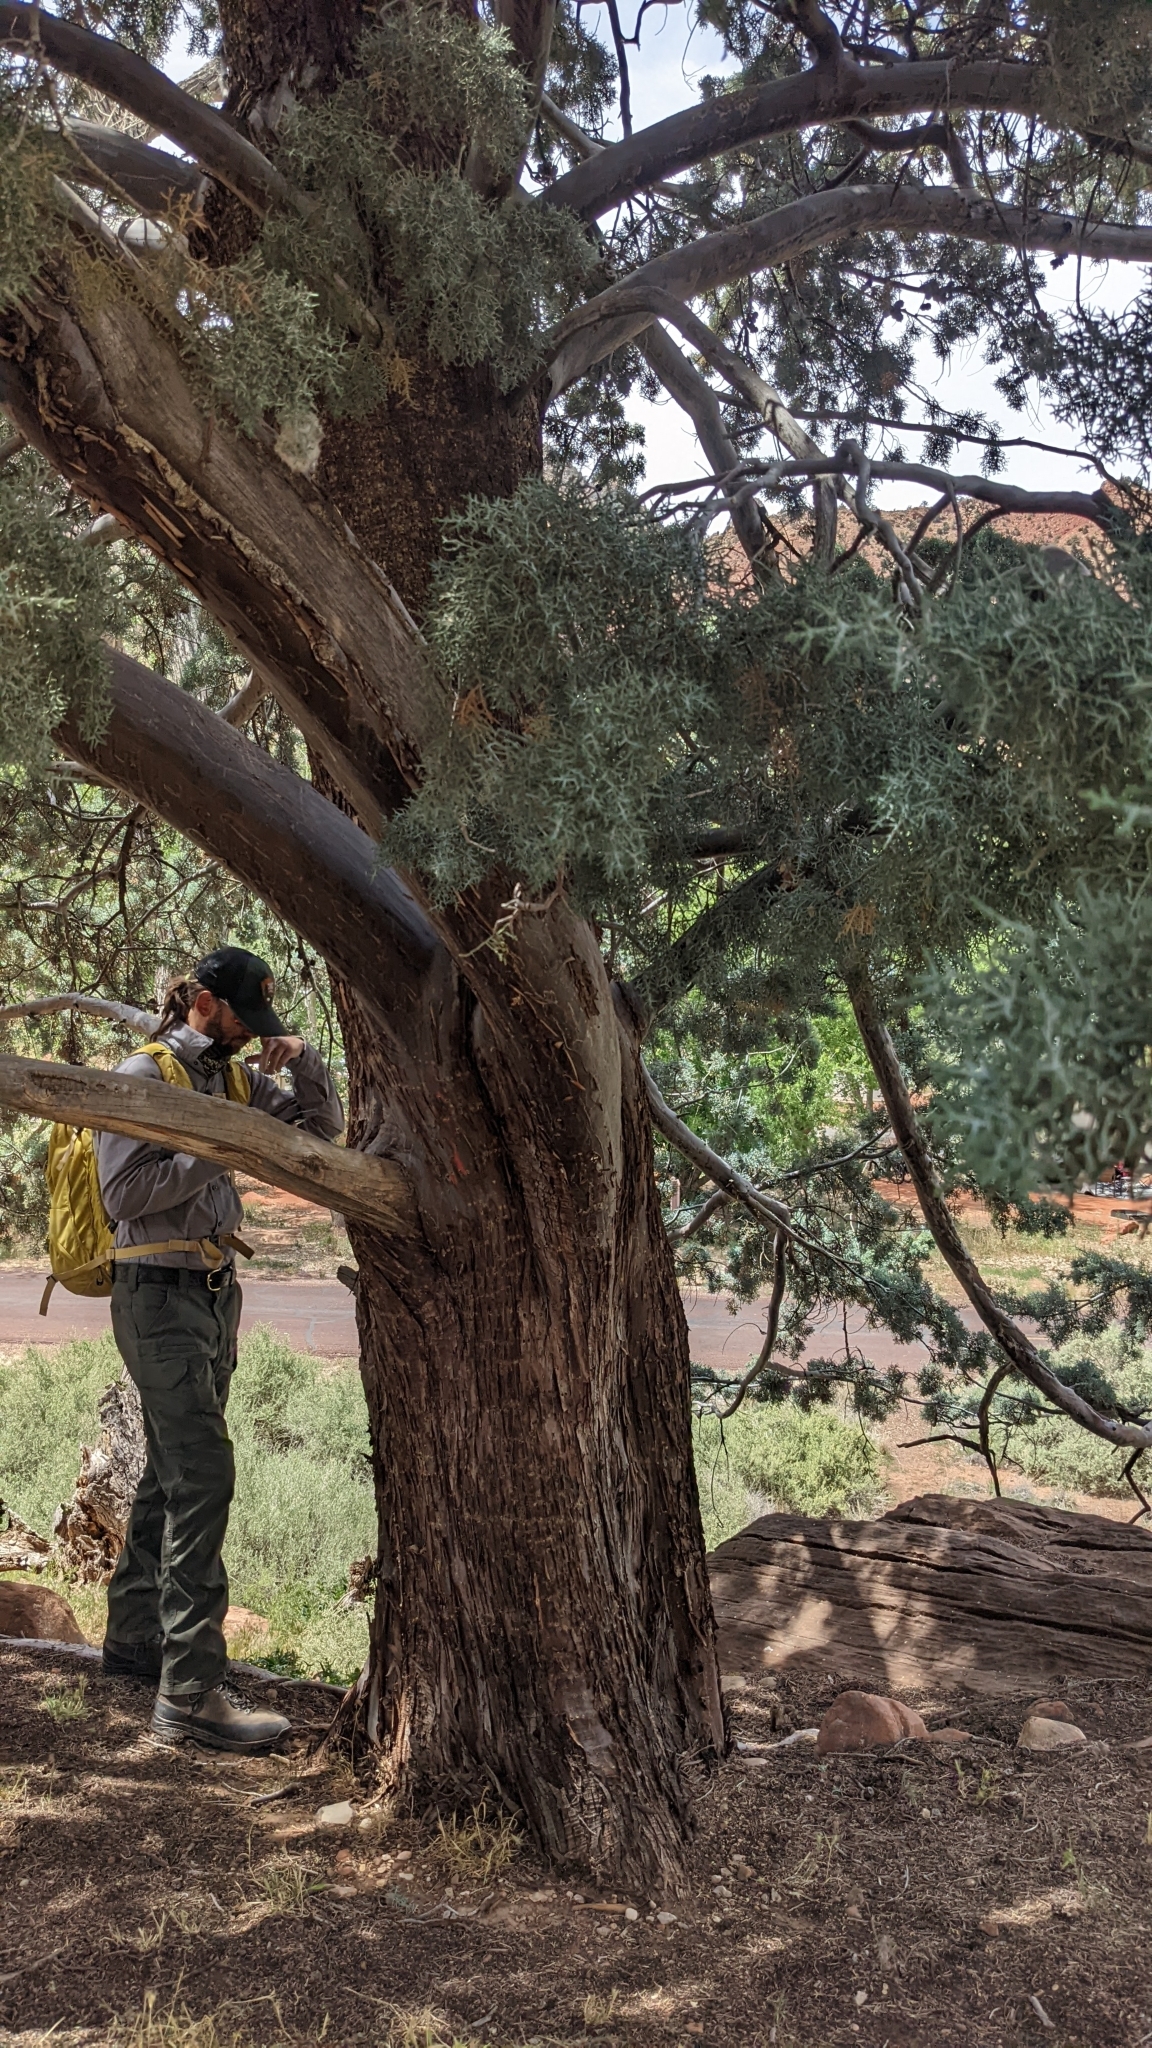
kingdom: Plantae
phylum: Tracheophyta
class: Pinopsida
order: Pinales
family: Cupressaceae
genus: Cupressus
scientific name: Cupressus arizonica
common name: Arizona cypress
